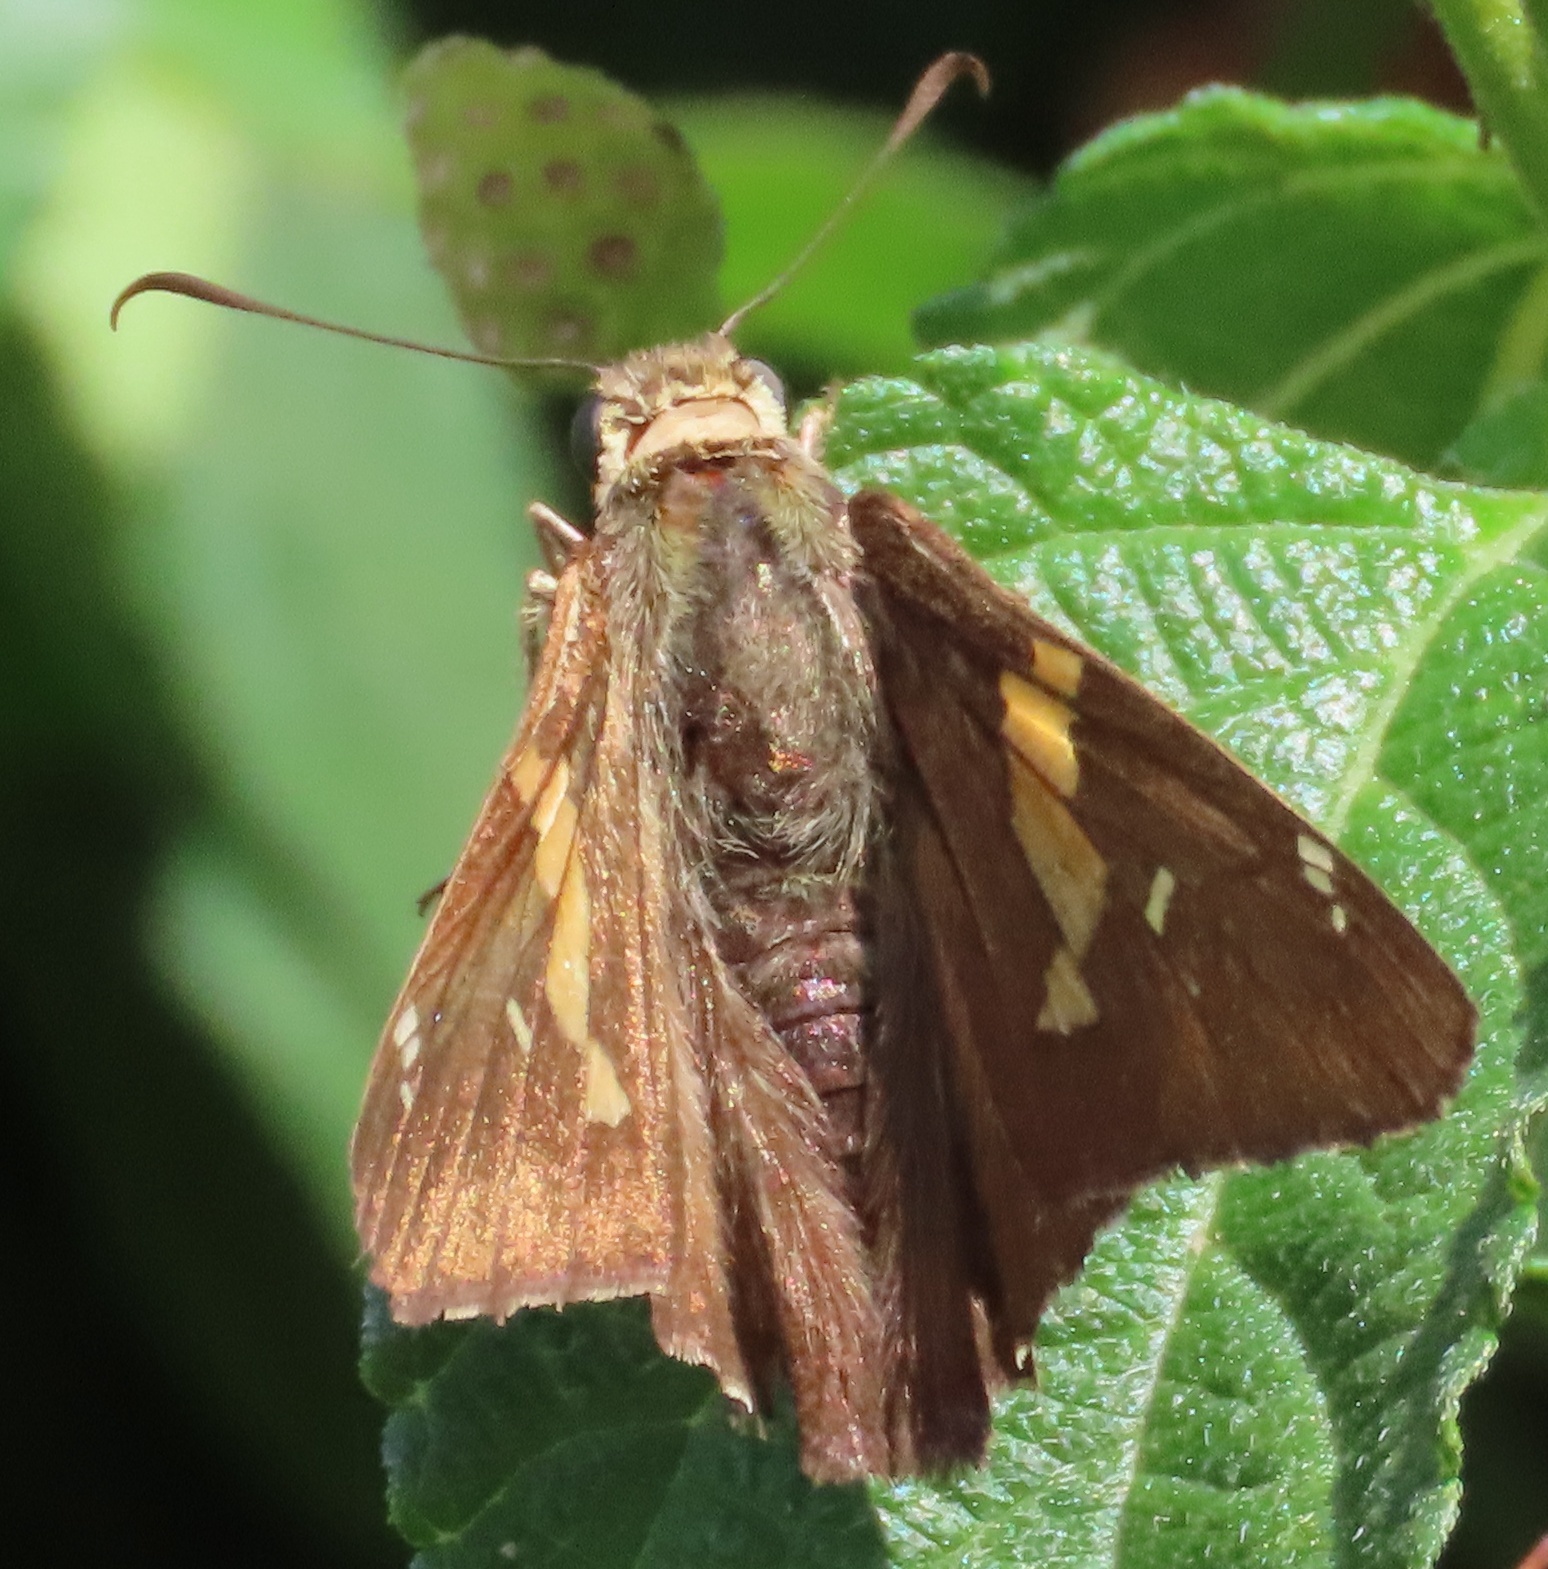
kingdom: Animalia
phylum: Arthropoda
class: Insecta
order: Lepidoptera
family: Hesperiidae
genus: Epargyreus
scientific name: Epargyreus clarus
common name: Silver-spotted skipper
